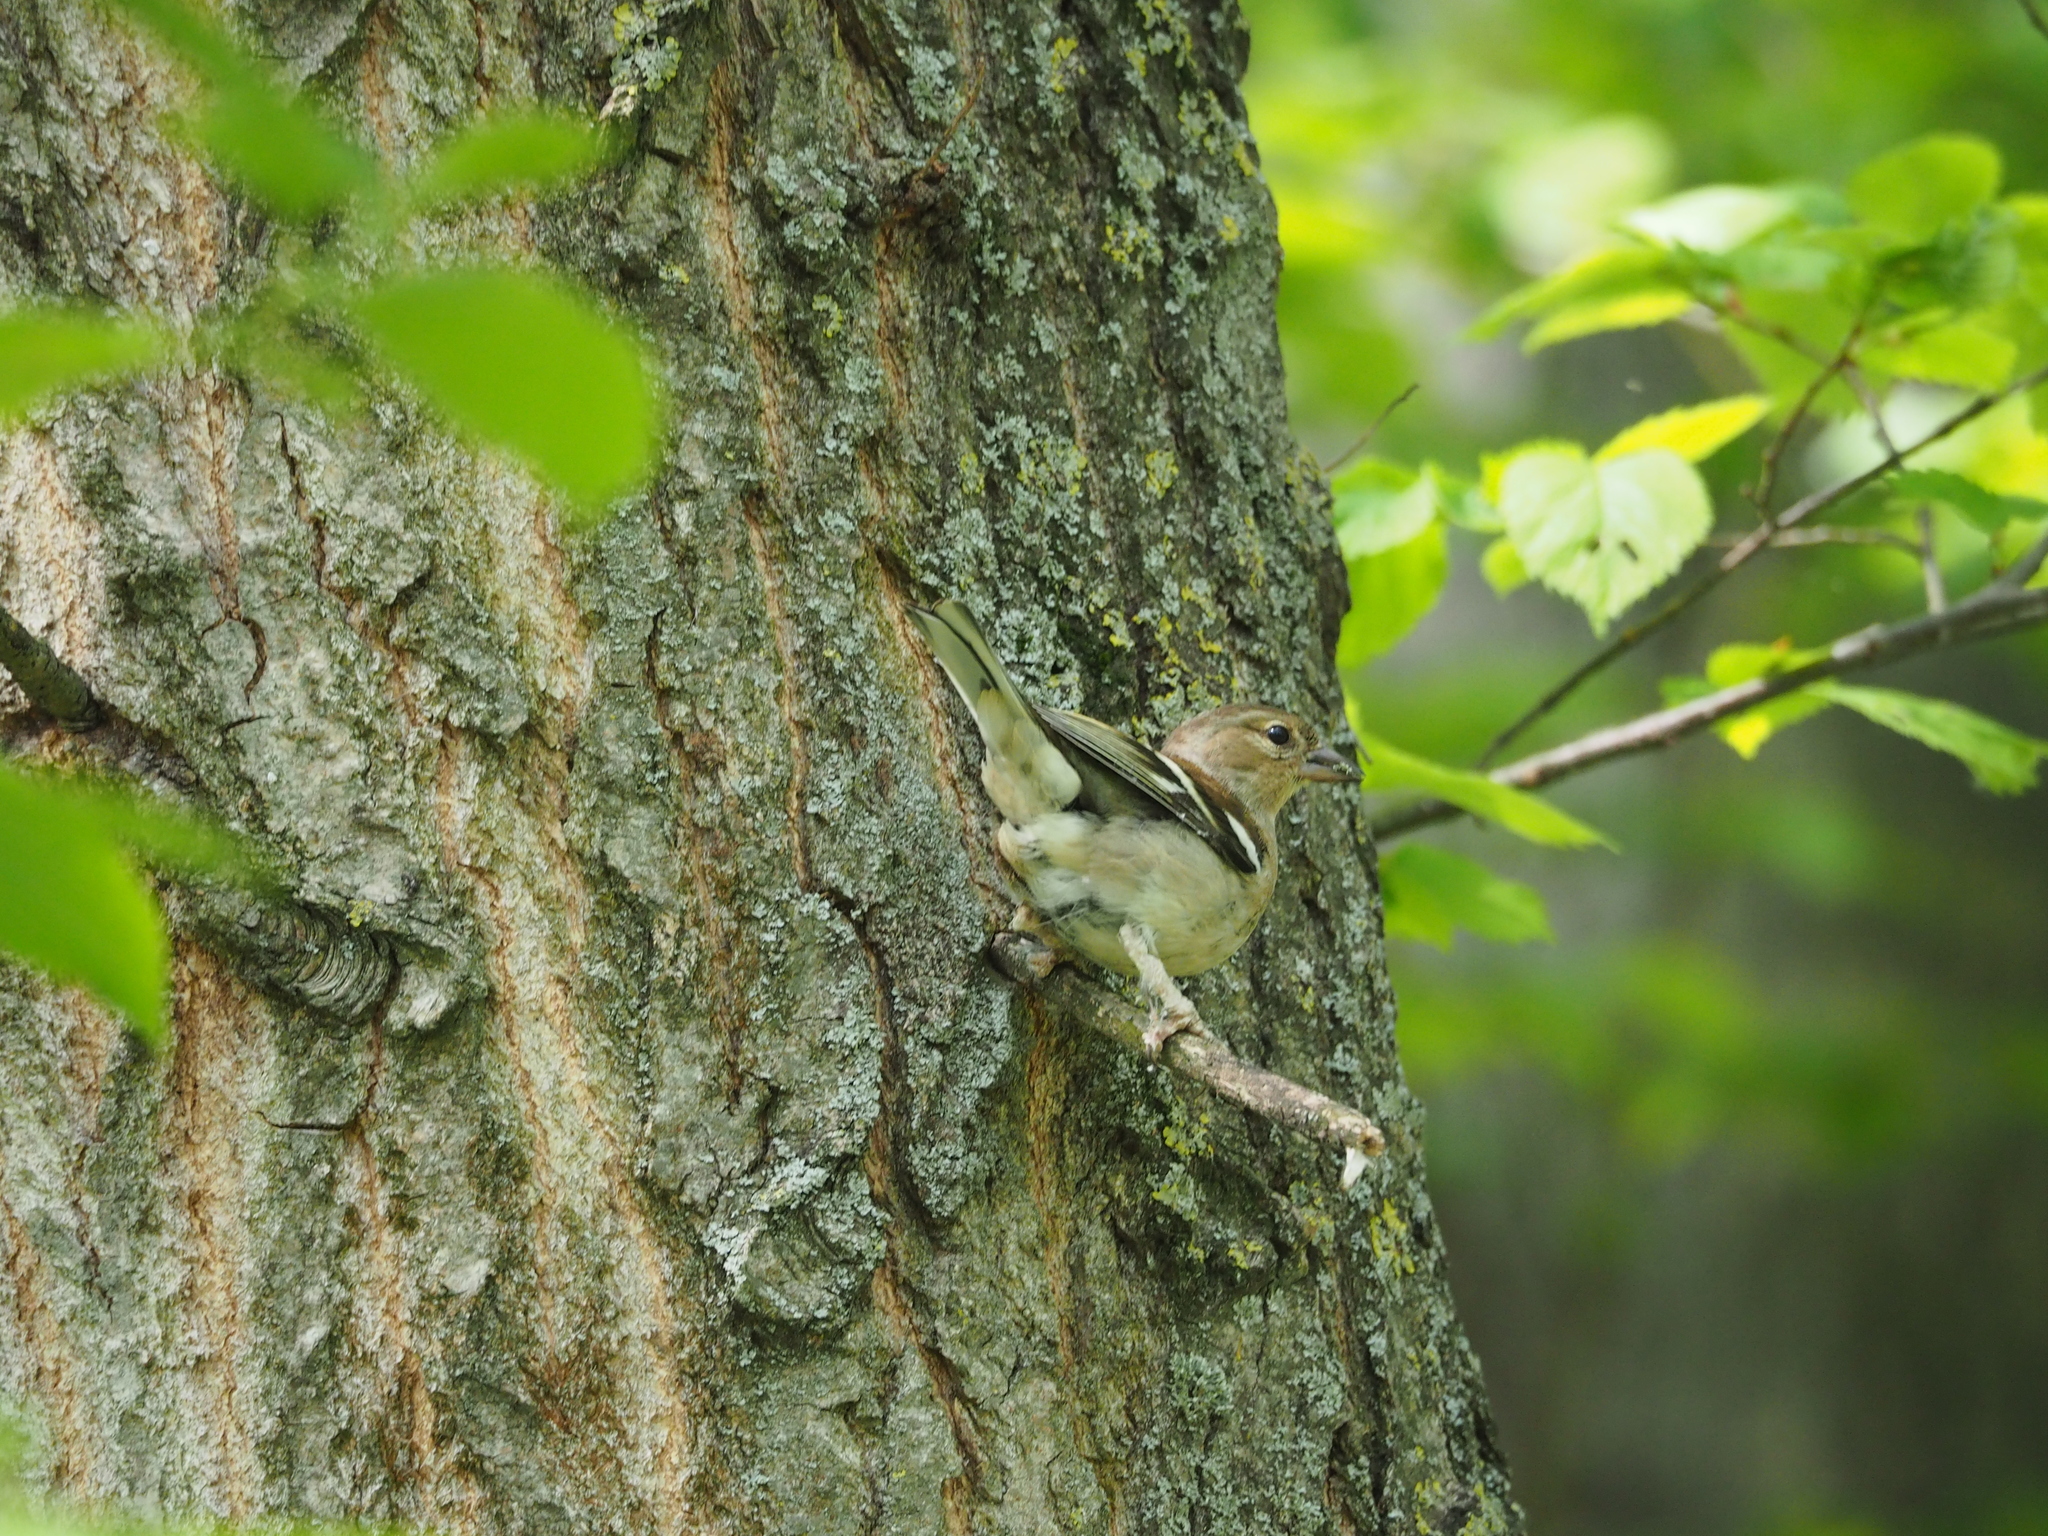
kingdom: Animalia
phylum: Chordata
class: Aves
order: Passeriformes
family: Fringillidae
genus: Fringilla
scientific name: Fringilla coelebs
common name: Common chaffinch
